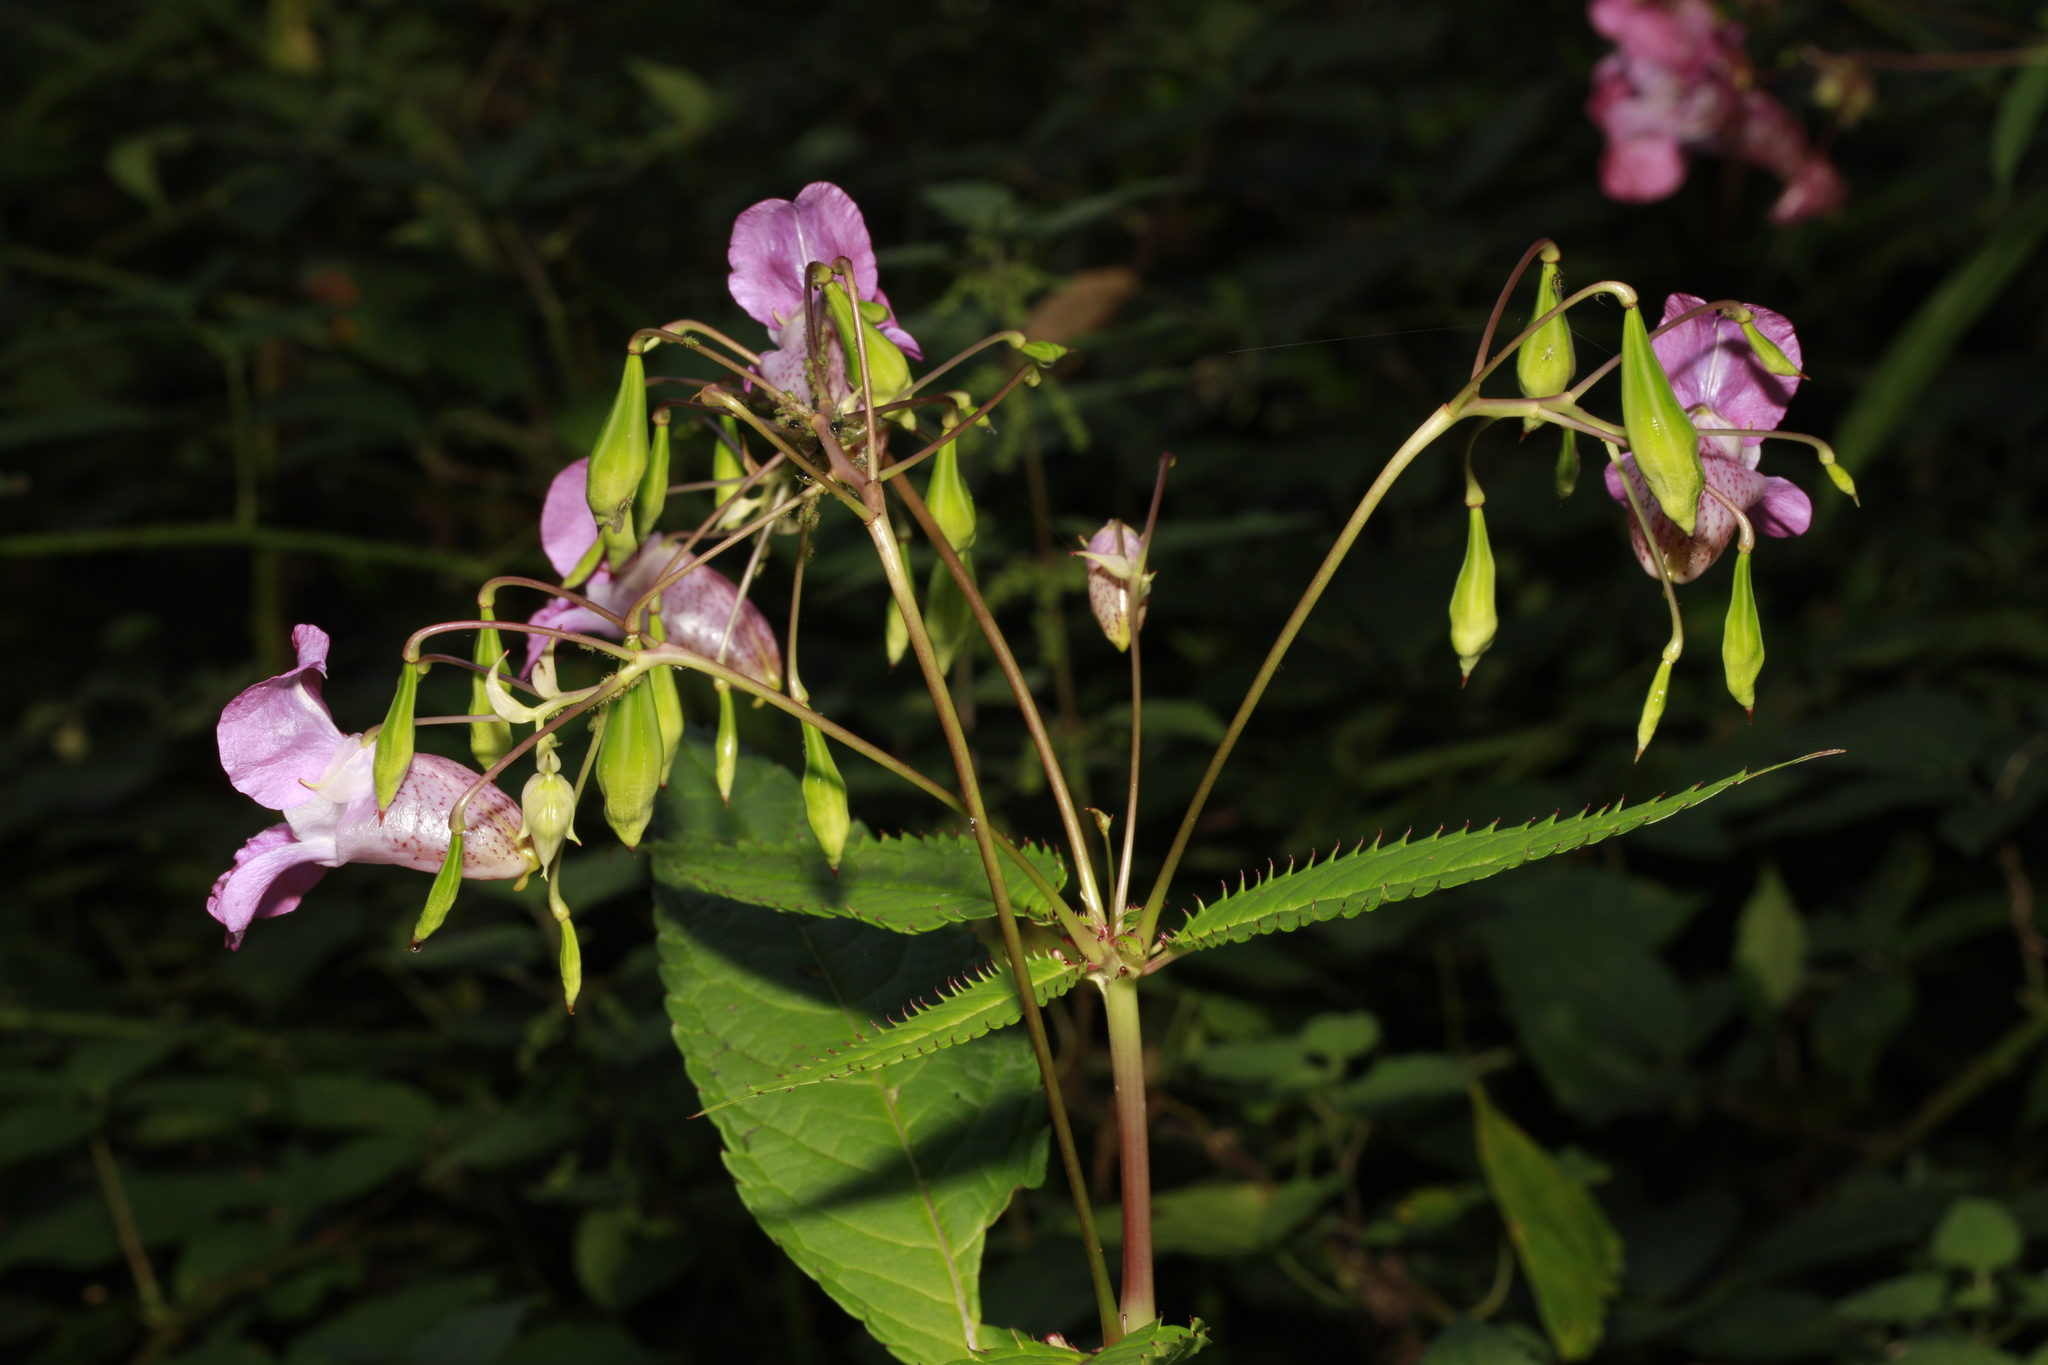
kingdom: Plantae
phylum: Tracheophyta
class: Magnoliopsida
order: Ericales
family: Balsaminaceae
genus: Impatiens
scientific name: Impatiens glandulifera
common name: Himalayan balsam
